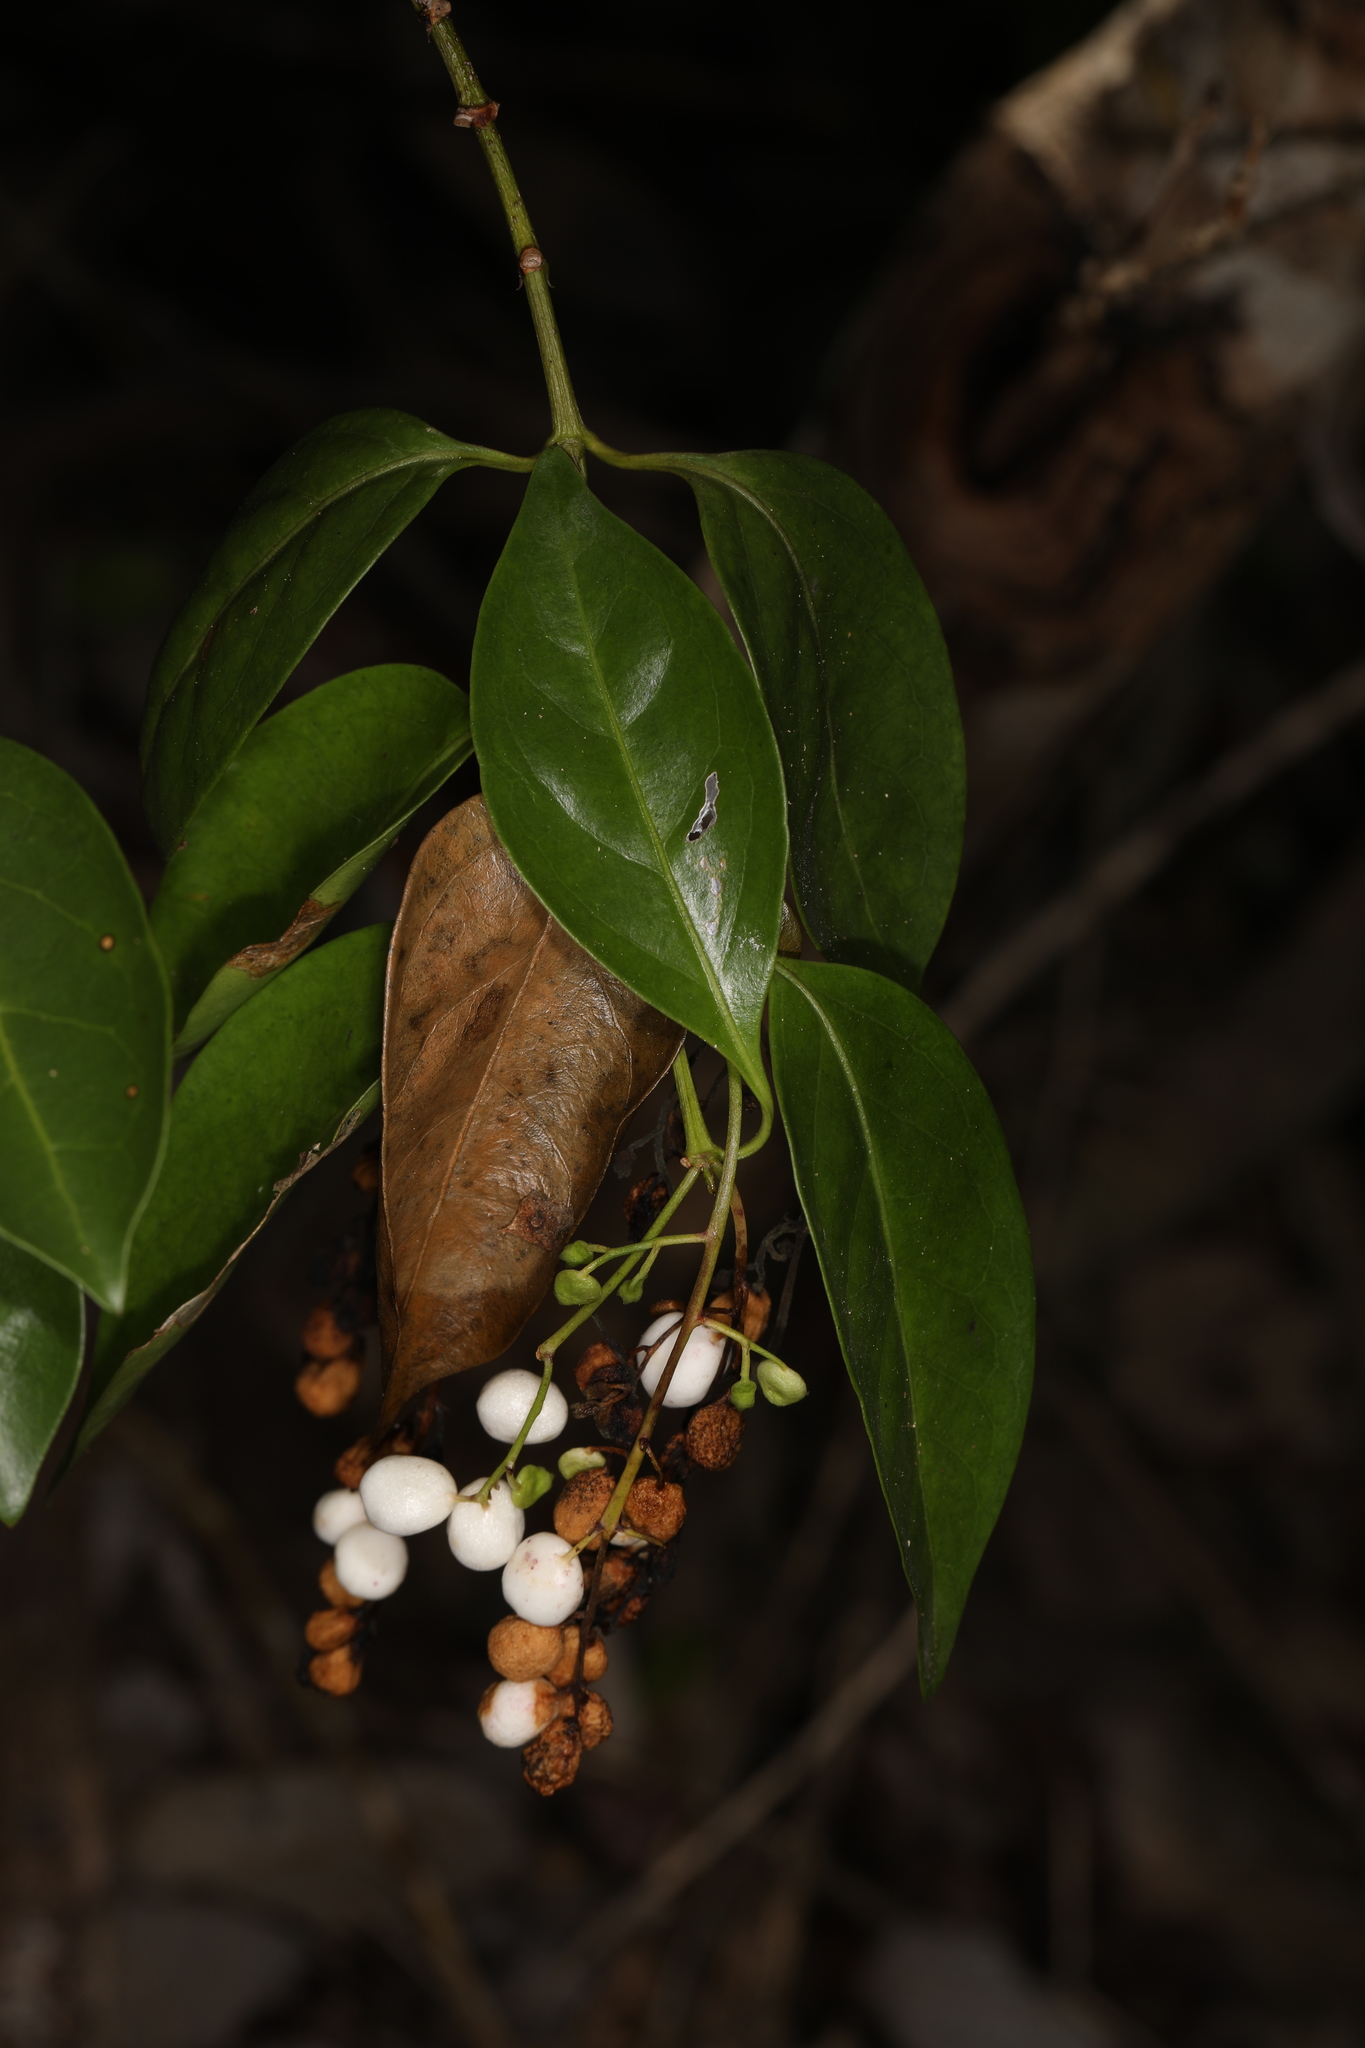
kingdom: Plantae
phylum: Tracheophyta
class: Magnoliopsida
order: Gentianales
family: Rubiaceae
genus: Chiococca
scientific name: Chiococca alba
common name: Snowberry
